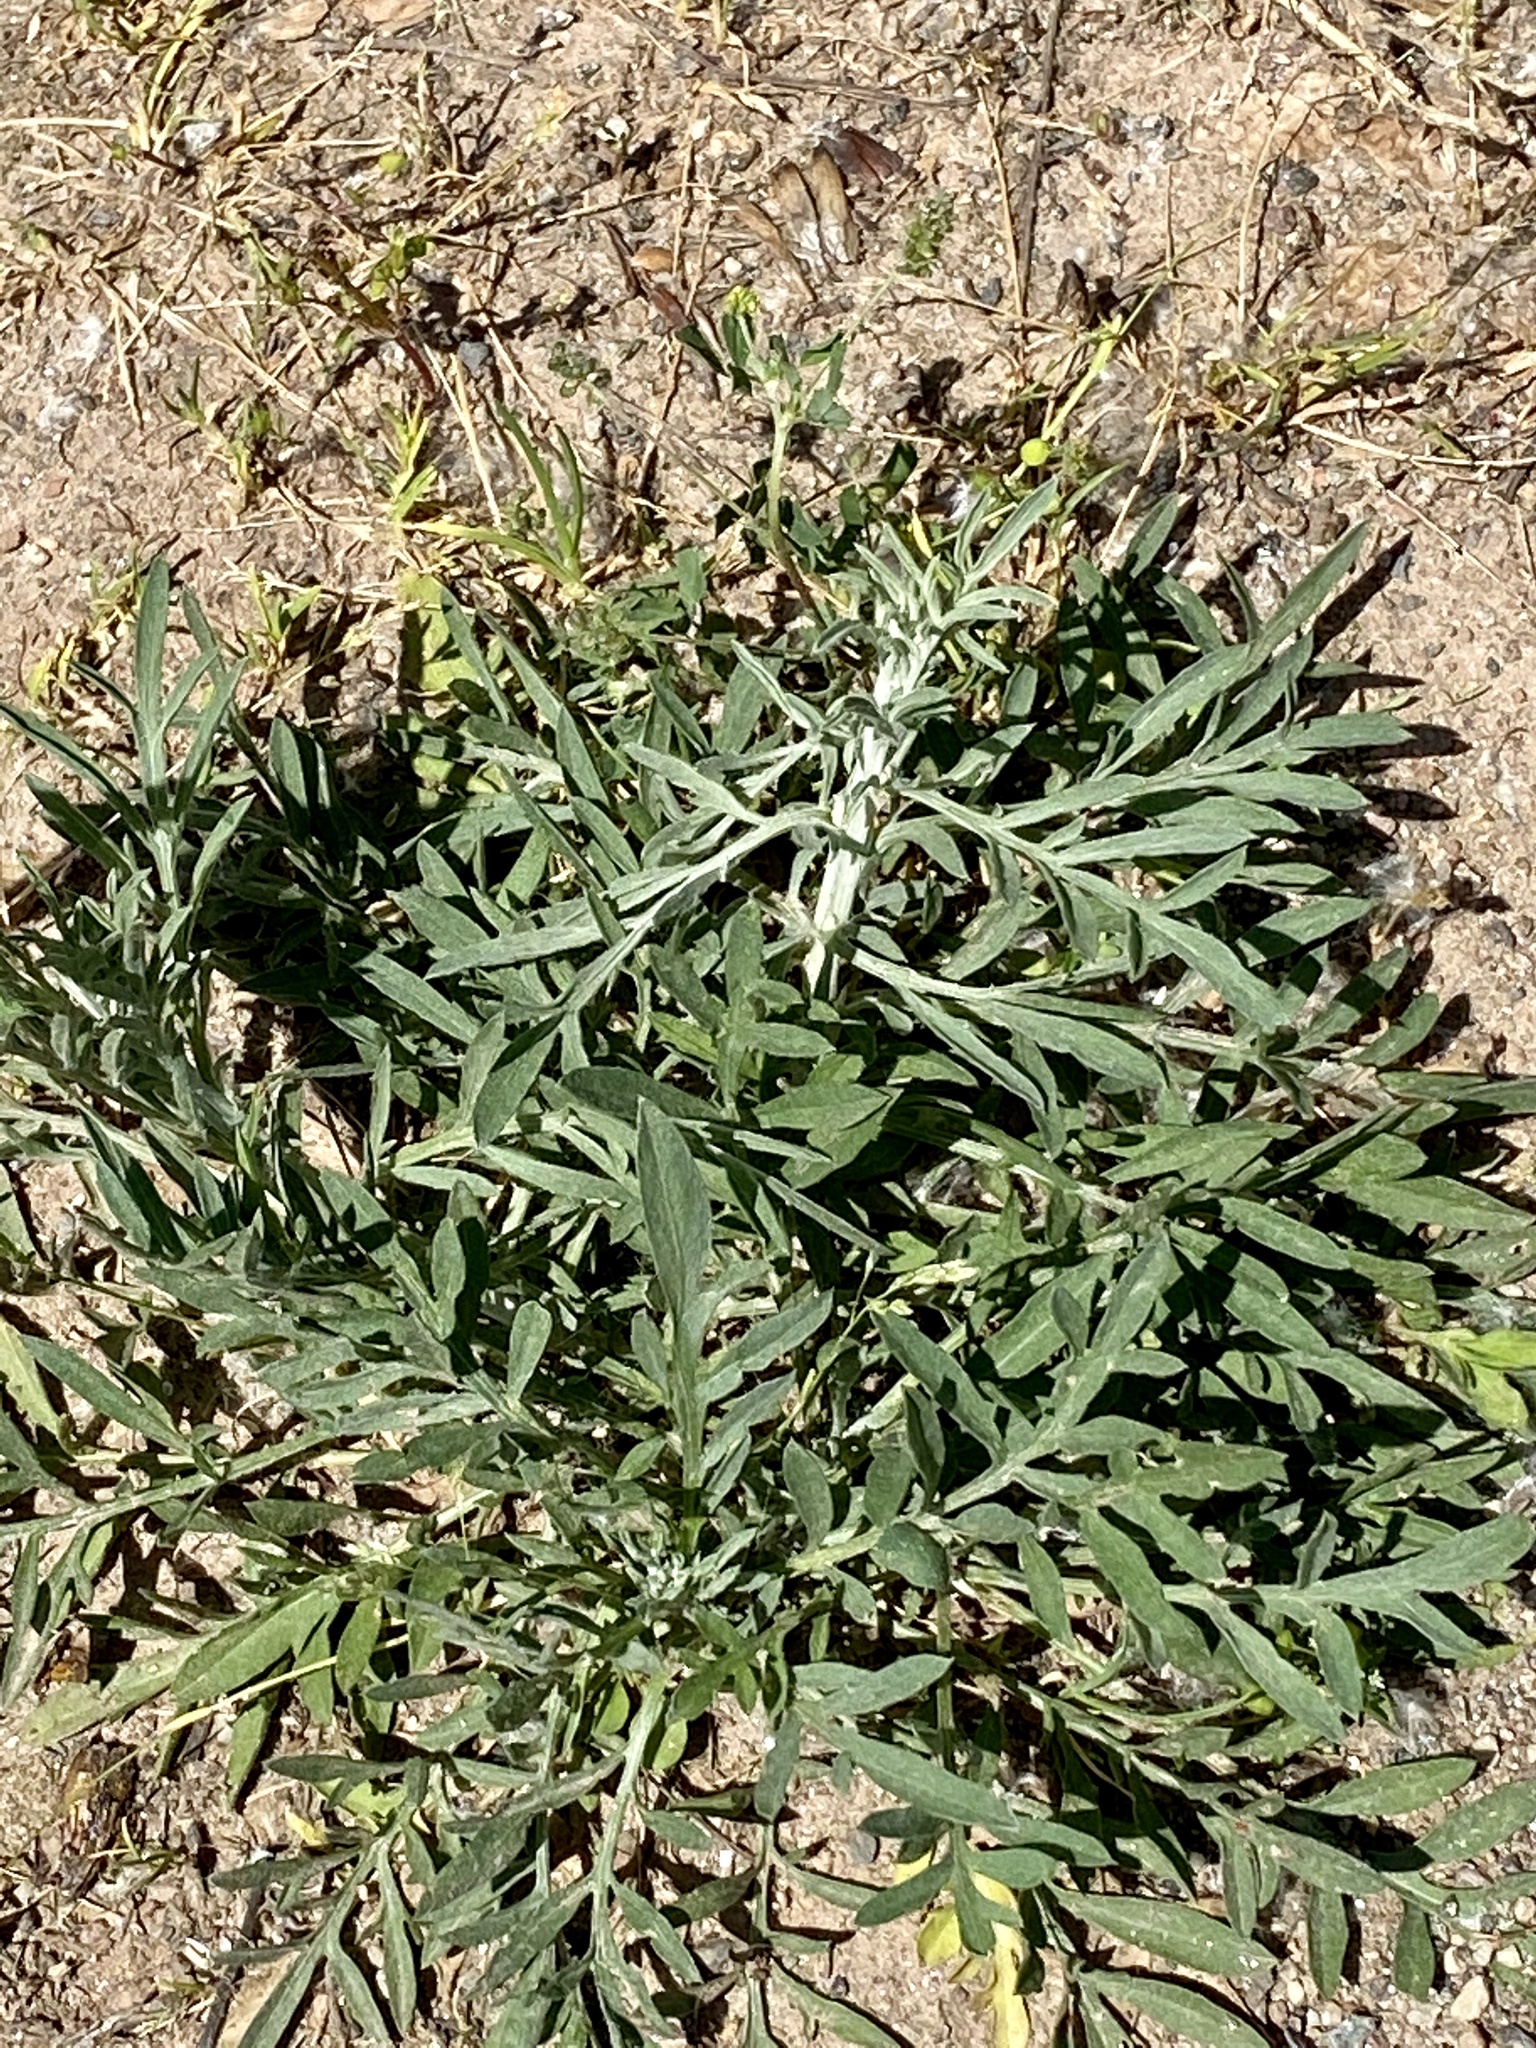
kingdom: Plantae
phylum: Tracheophyta
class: Magnoliopsida
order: Asterales
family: Asteraceae
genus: Centaurea
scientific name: Centaurea stoebe
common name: Spotted knapweed
